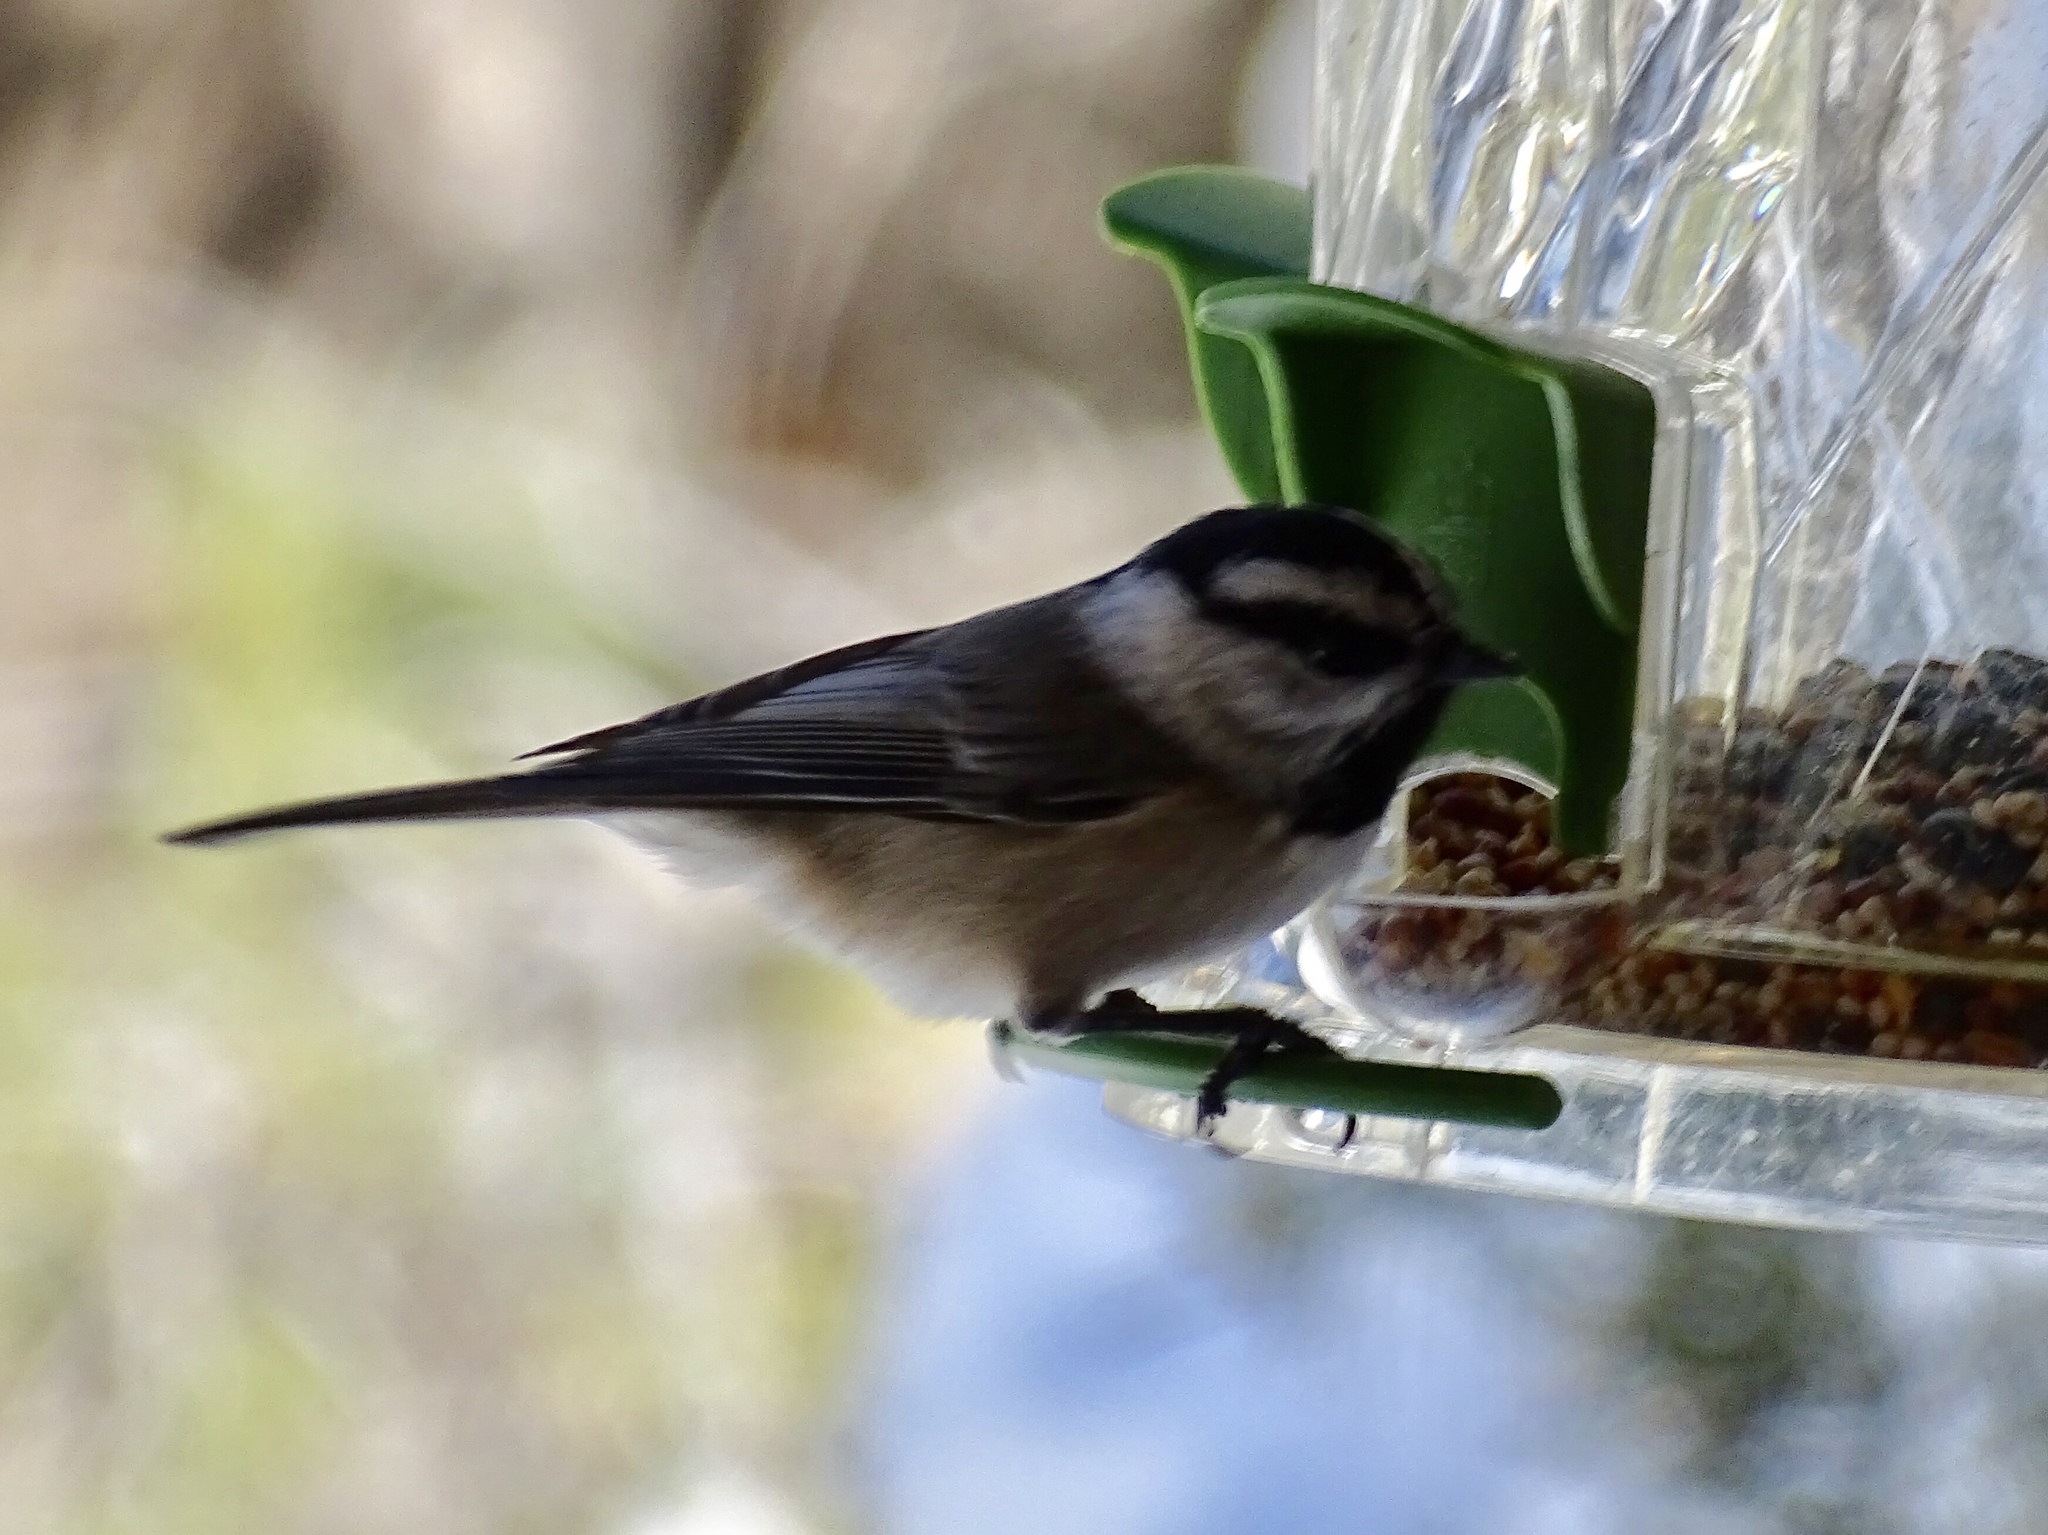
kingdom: Animalia
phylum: Chordata
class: Aves
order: Passeriformes
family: Paridae
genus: Poecile
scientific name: Poecile gambeli
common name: Mountain chickadee
